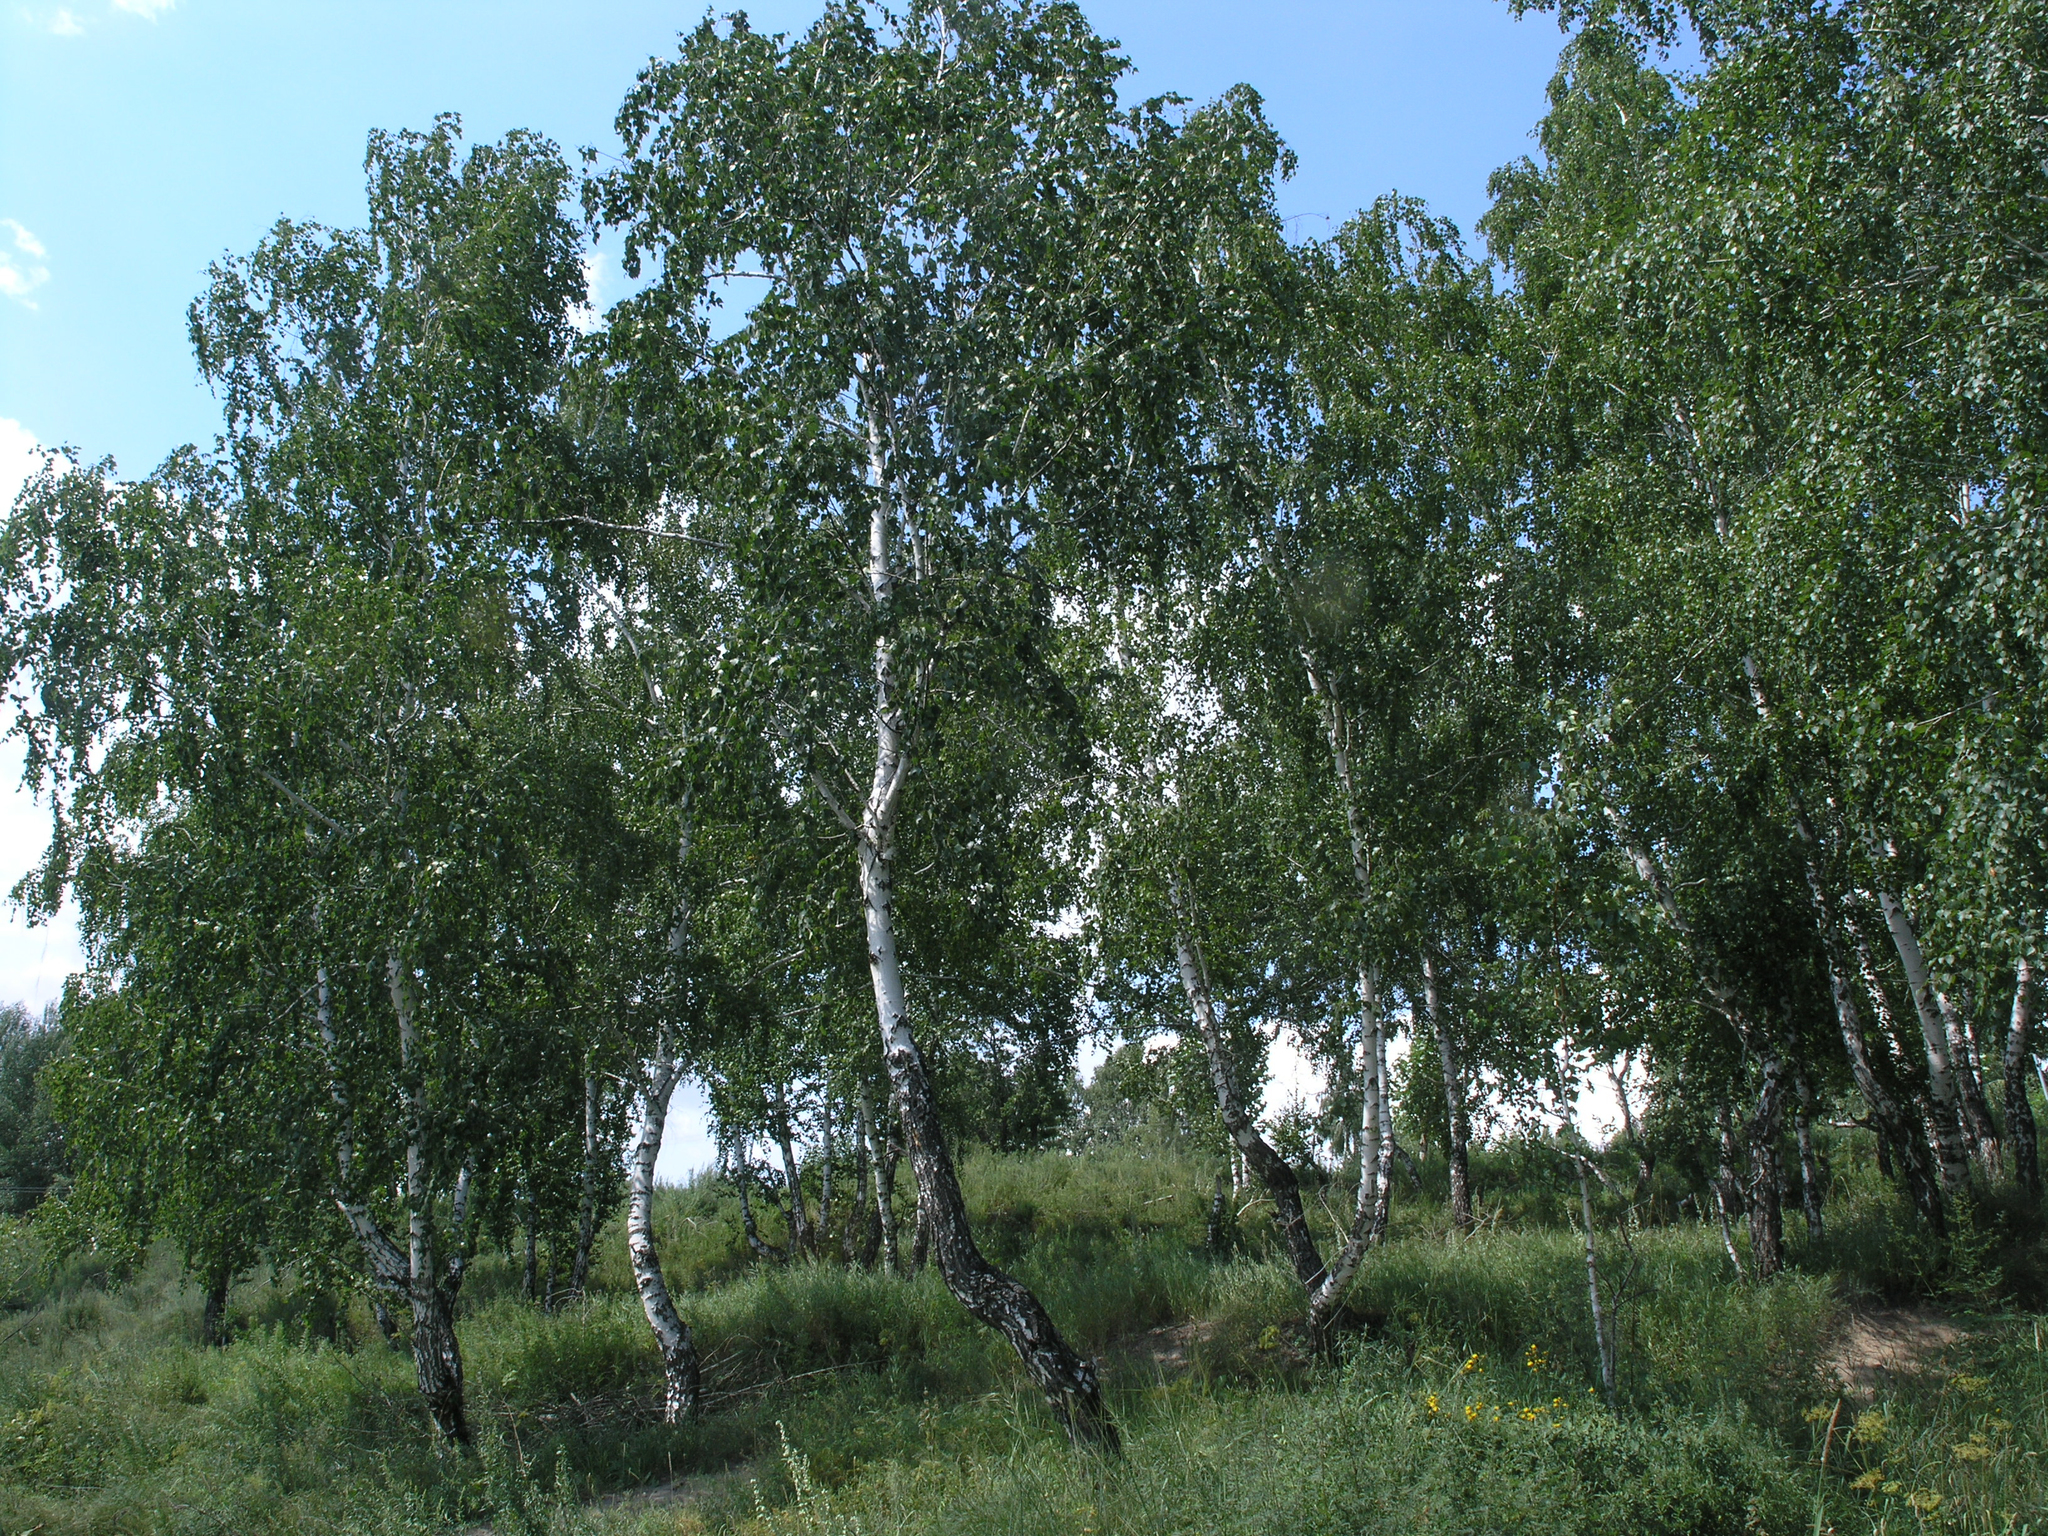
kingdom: Plantae
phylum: Tracheophyta
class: Magnoliopsida
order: Fagales
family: Betulaceae
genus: Betula
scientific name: Betula pendula
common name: Silver birch
